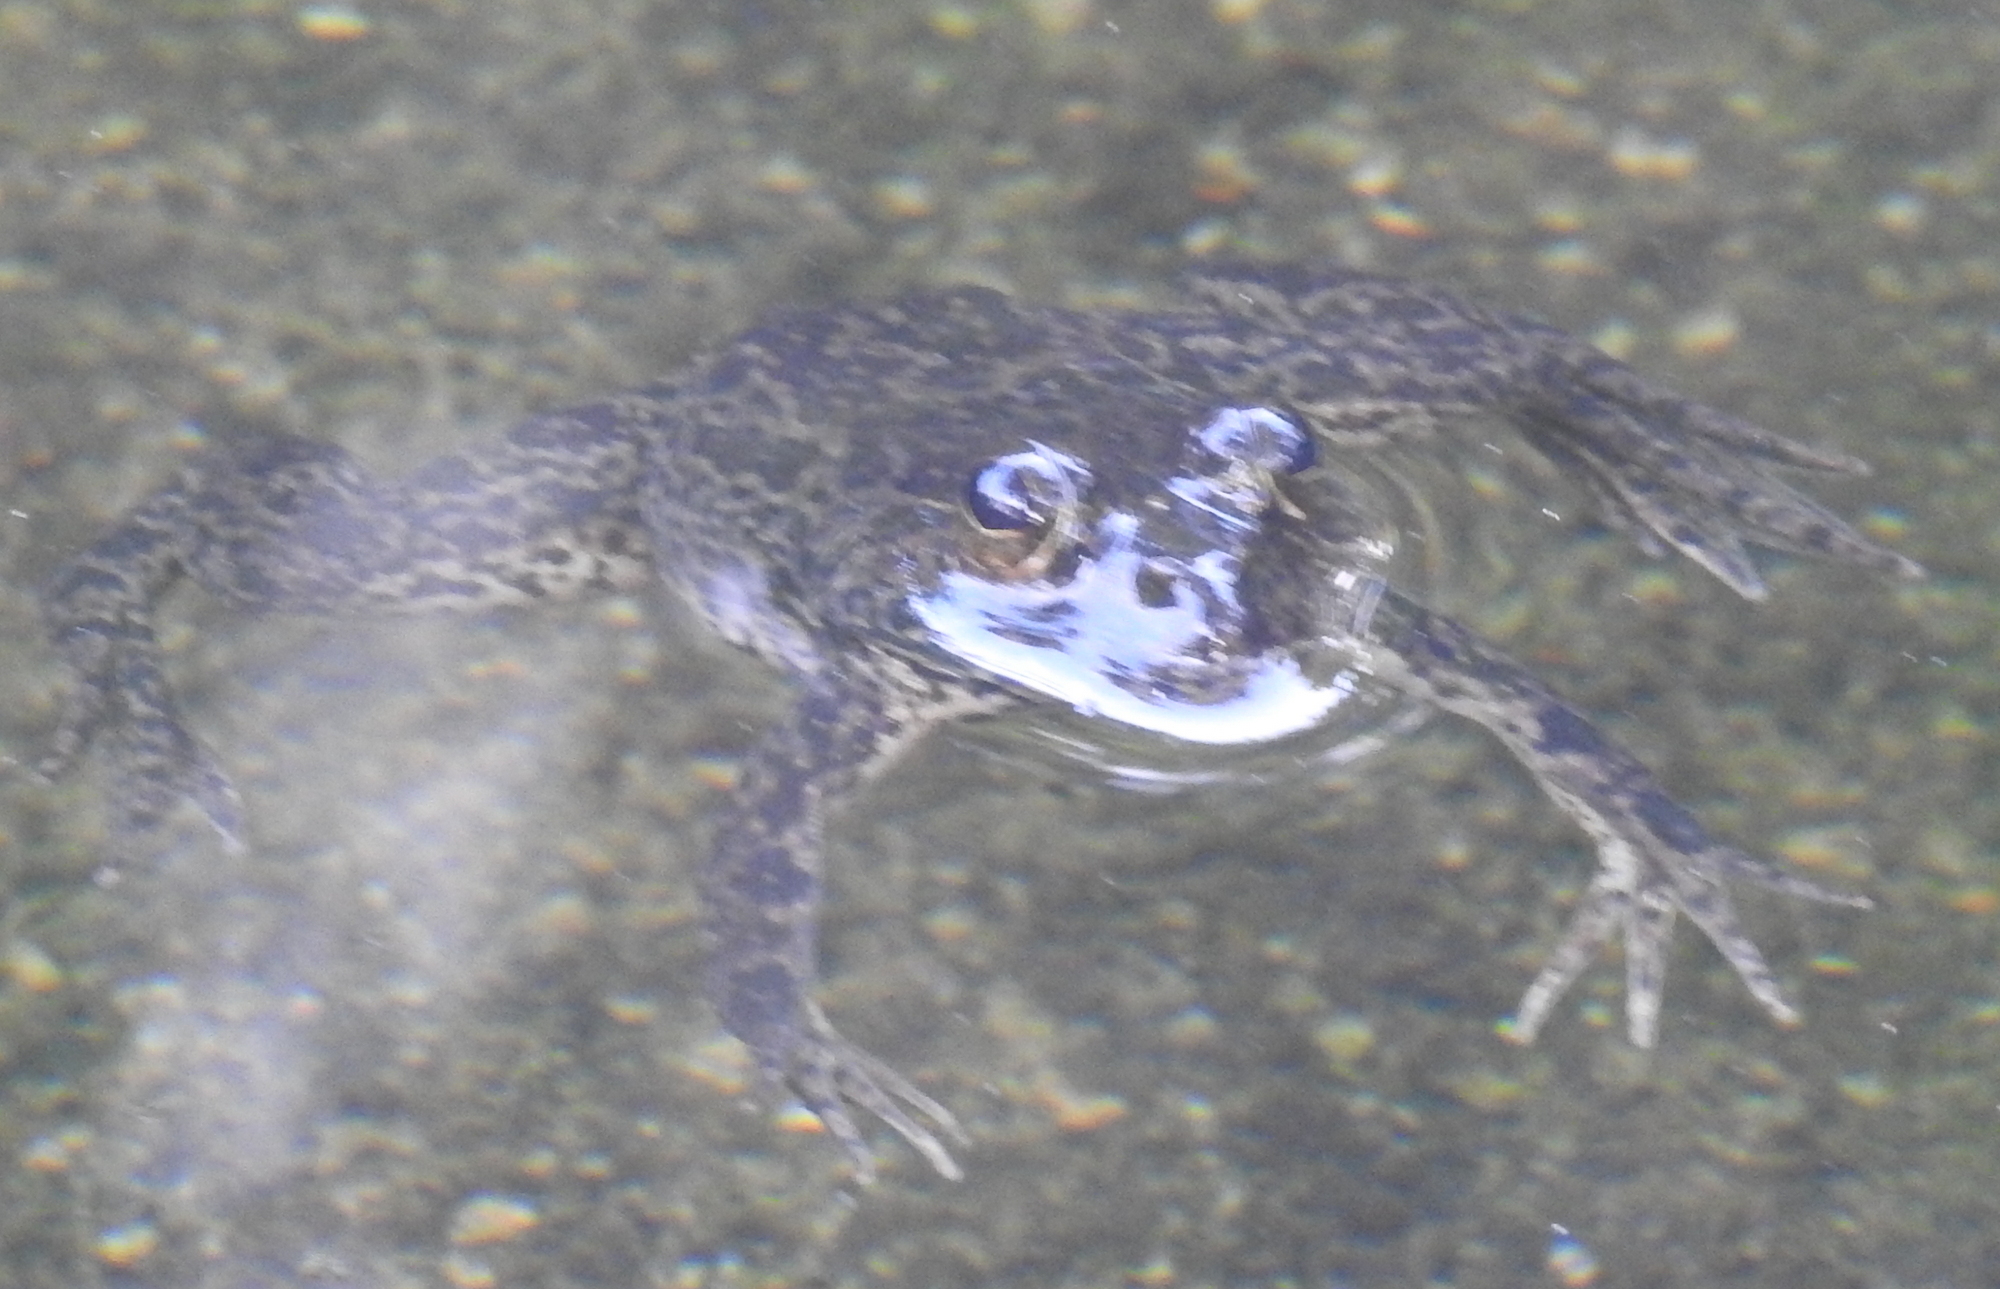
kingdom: Animalia
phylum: Chordata
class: Amphibia
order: Anura
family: Dicroglossidae
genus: Euphlyctis
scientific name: Euphlyctis cyanophlyctis
